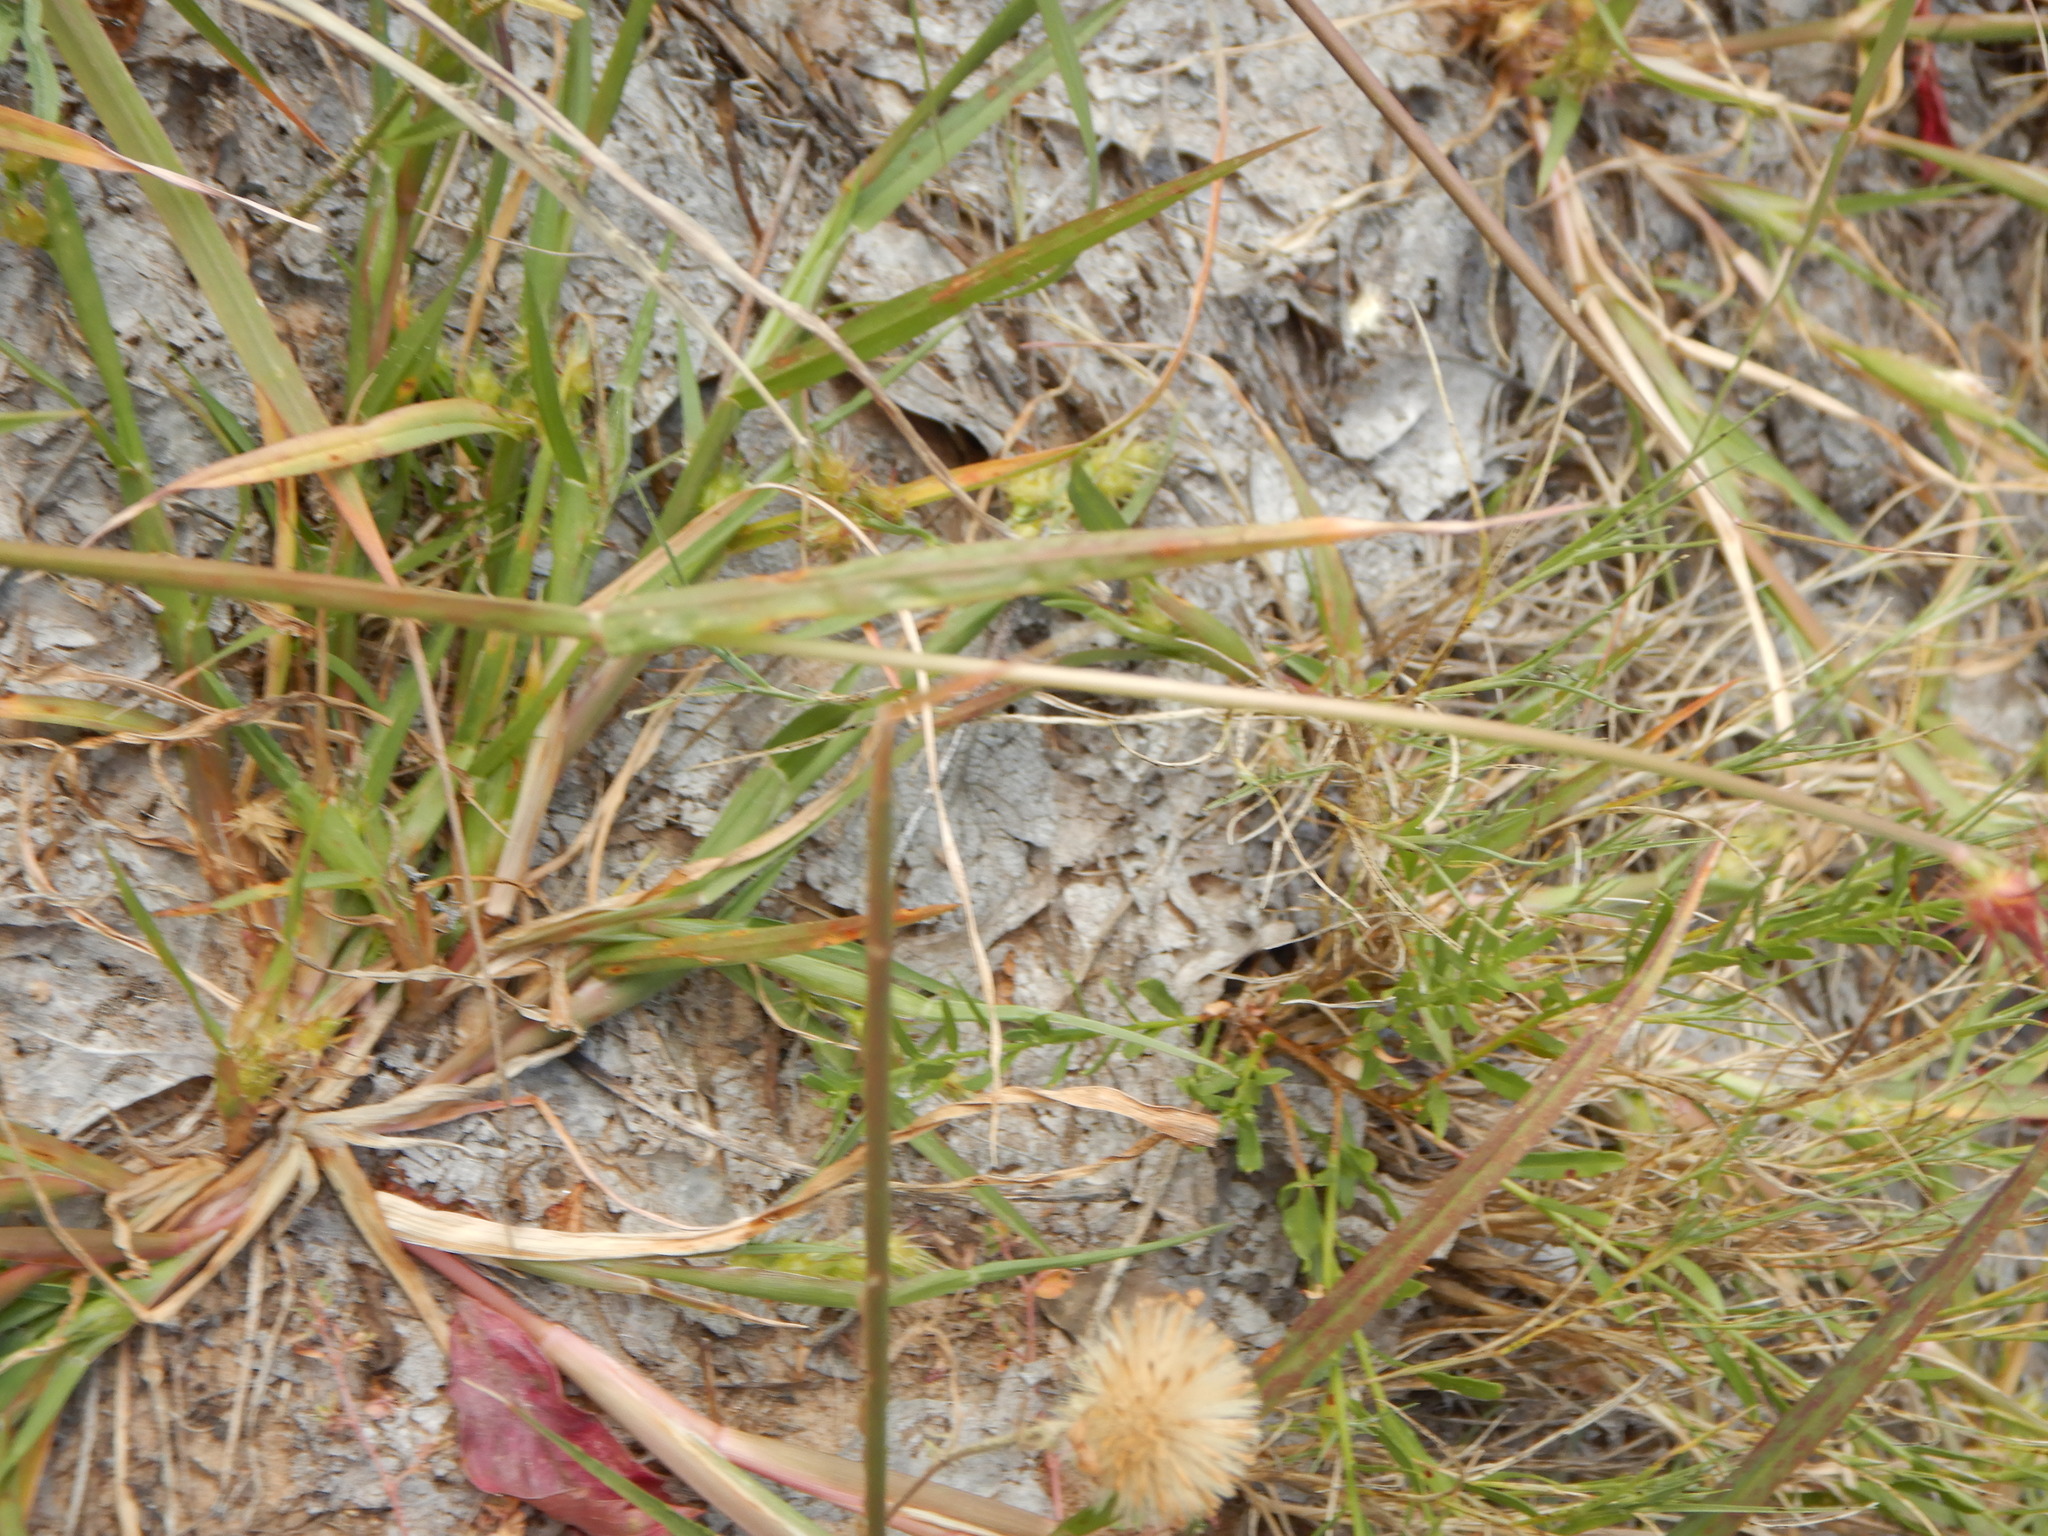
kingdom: Plantae
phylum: Tracheophyta
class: Liliopsida
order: Poales
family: Poaceae
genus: Cenchrus
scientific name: Cenchrus spinifex
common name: Coast sandbur
